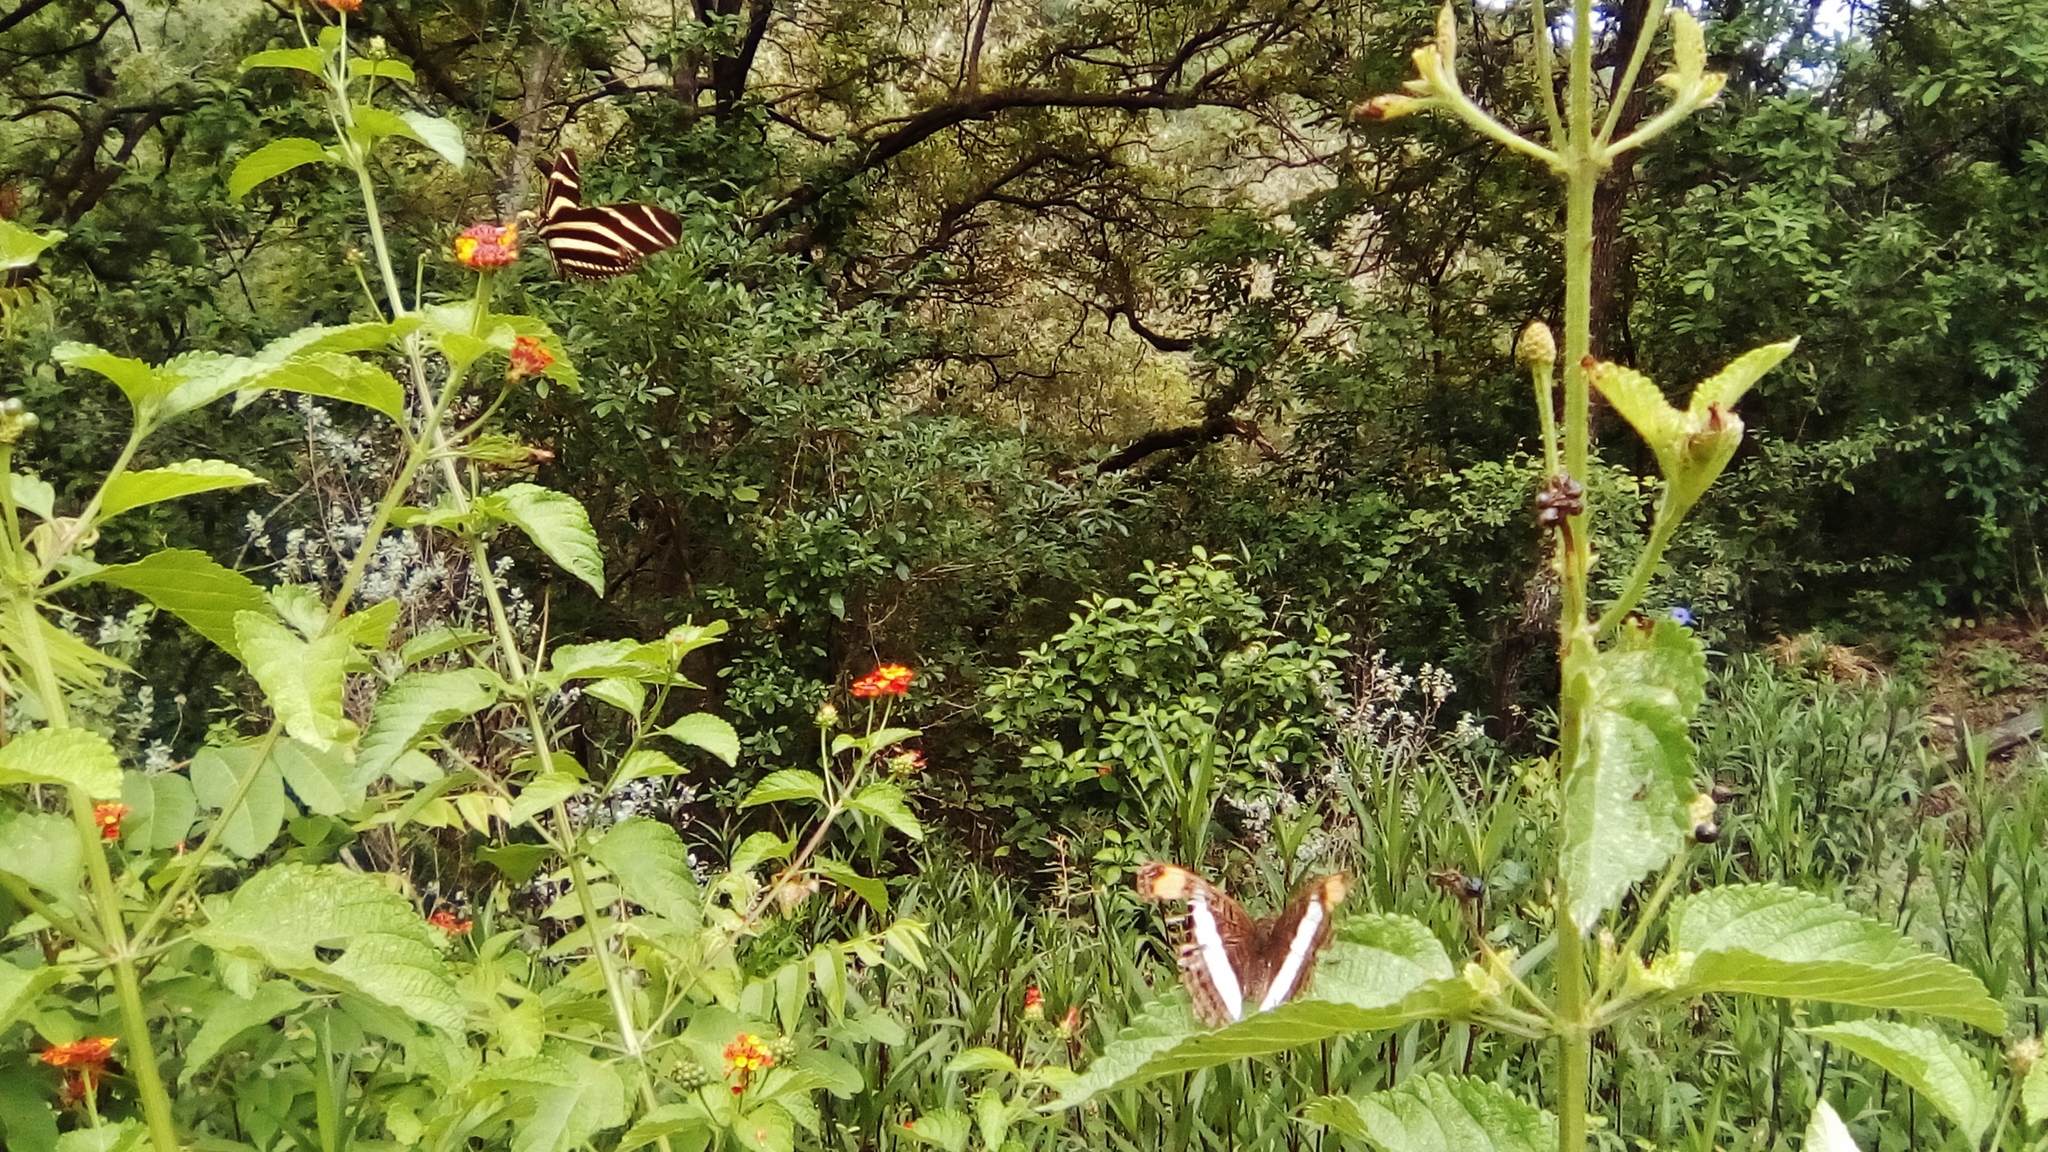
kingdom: Animalia
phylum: Arthropoda
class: Insecta
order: Lepidoptera
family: Nymphalidae
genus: Limenitis
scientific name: Limenitis Adelpha basiloides
